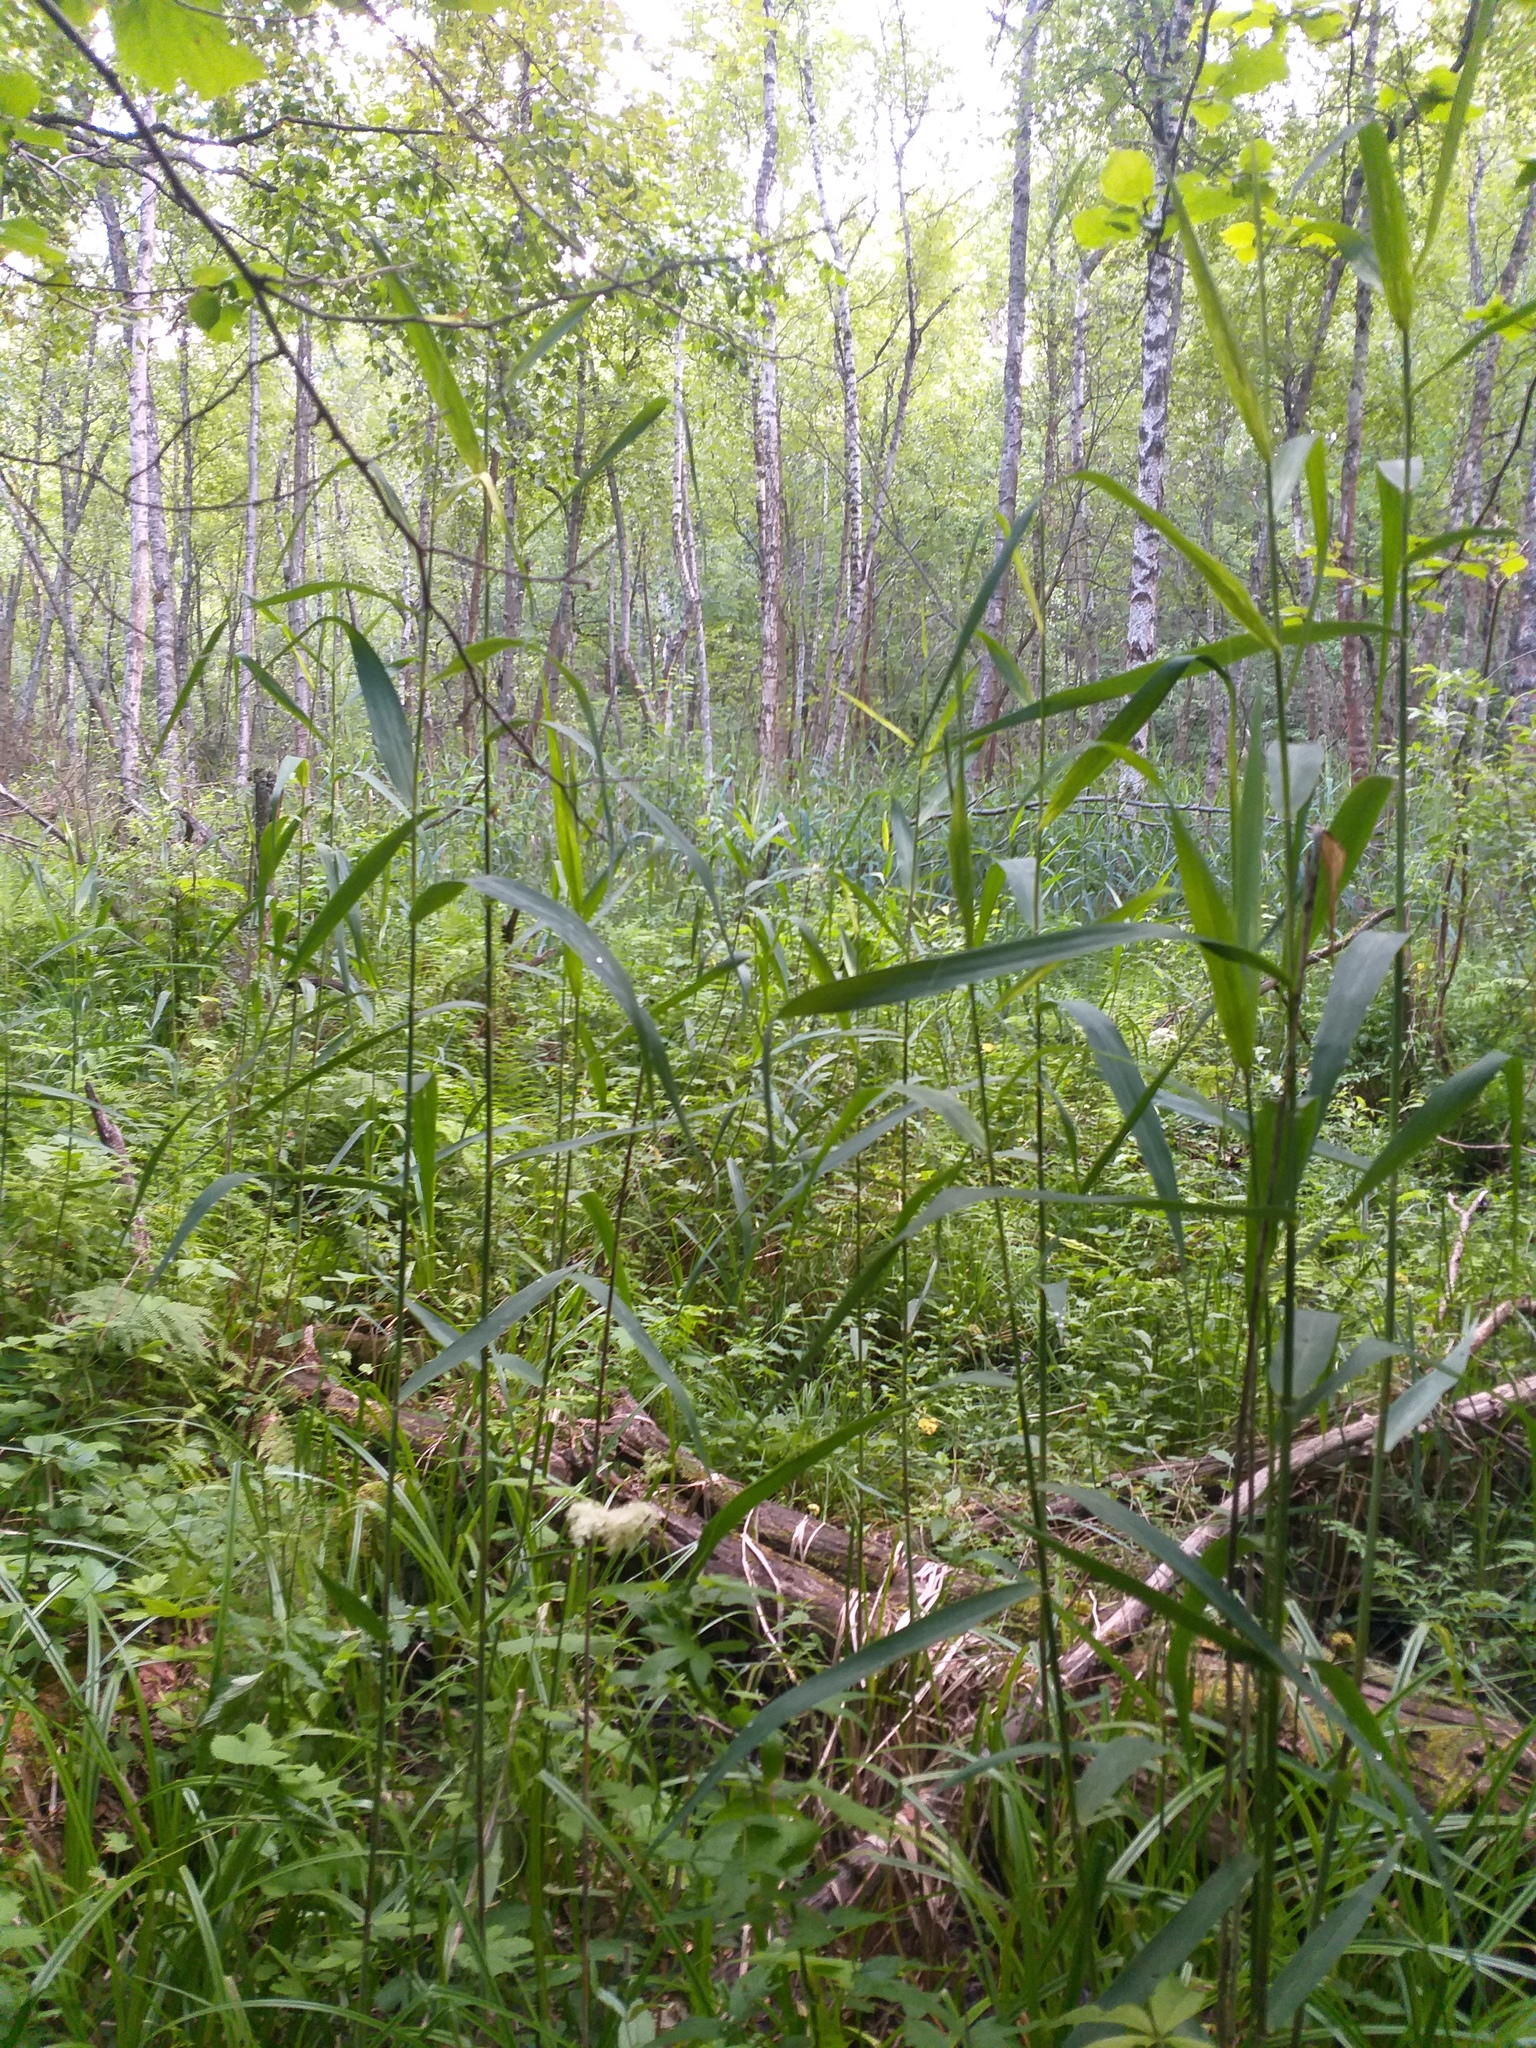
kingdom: Plantae
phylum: Tracheophyta
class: Liliopsida
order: Poales
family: Poaceae
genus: Phragmites
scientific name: Phragmites australis
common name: Common reed
